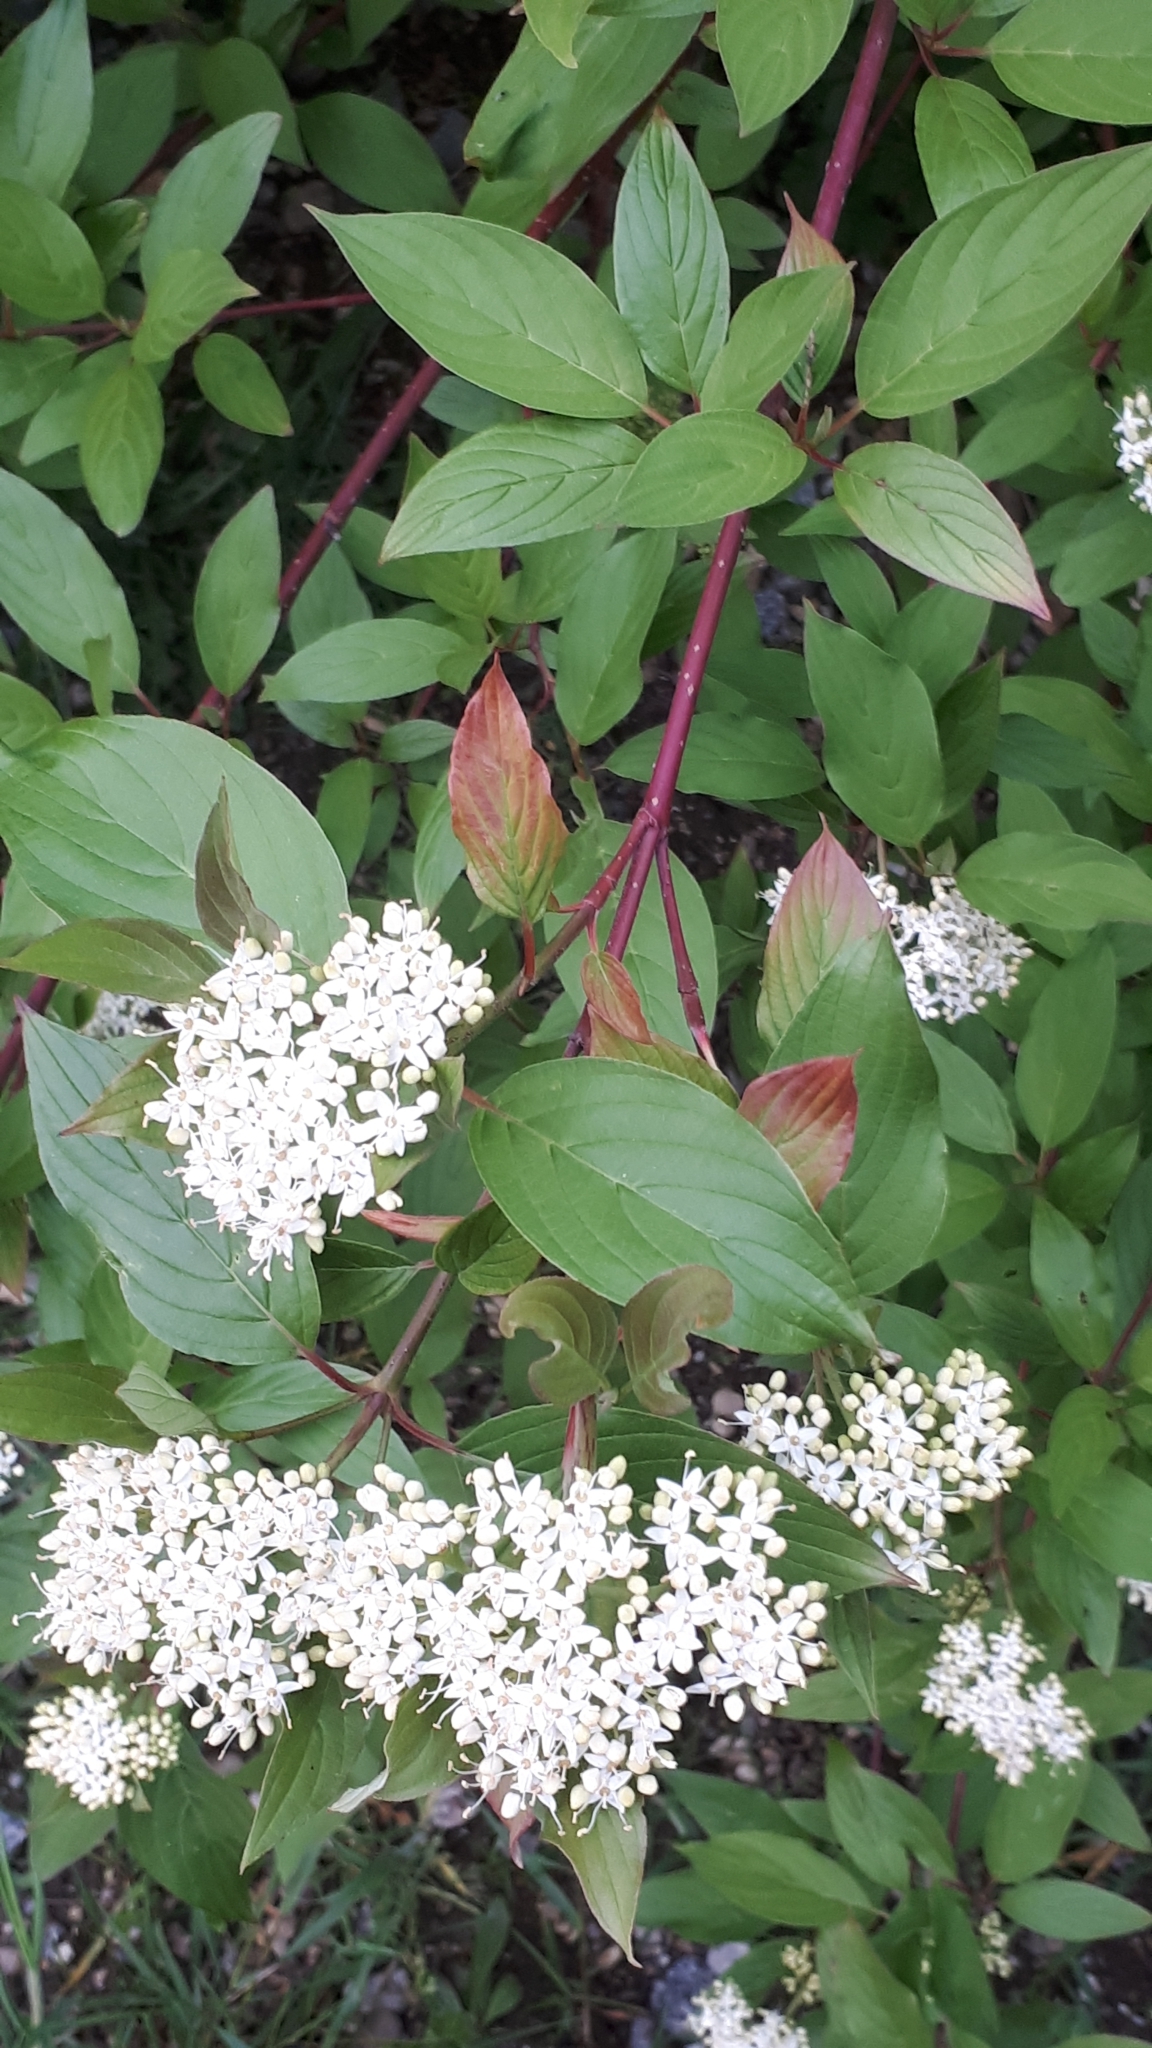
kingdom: Plantae
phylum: Tracheophyta
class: Magnoliopsida
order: Cornales
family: Cornaceae
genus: Cornus
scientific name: Cornus alba
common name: White dogwood
